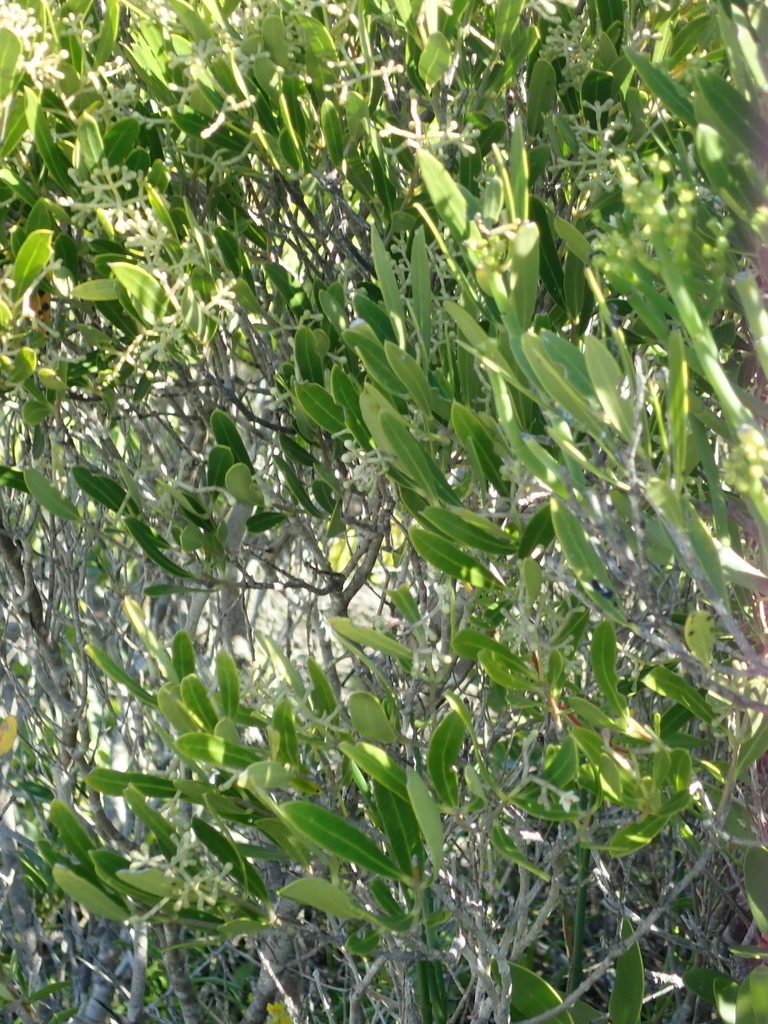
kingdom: Plantae
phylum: Tracheophyta
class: Magnoliopsida
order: Lamiales
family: Oleaceae
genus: Olea
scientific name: Olea exasperata
